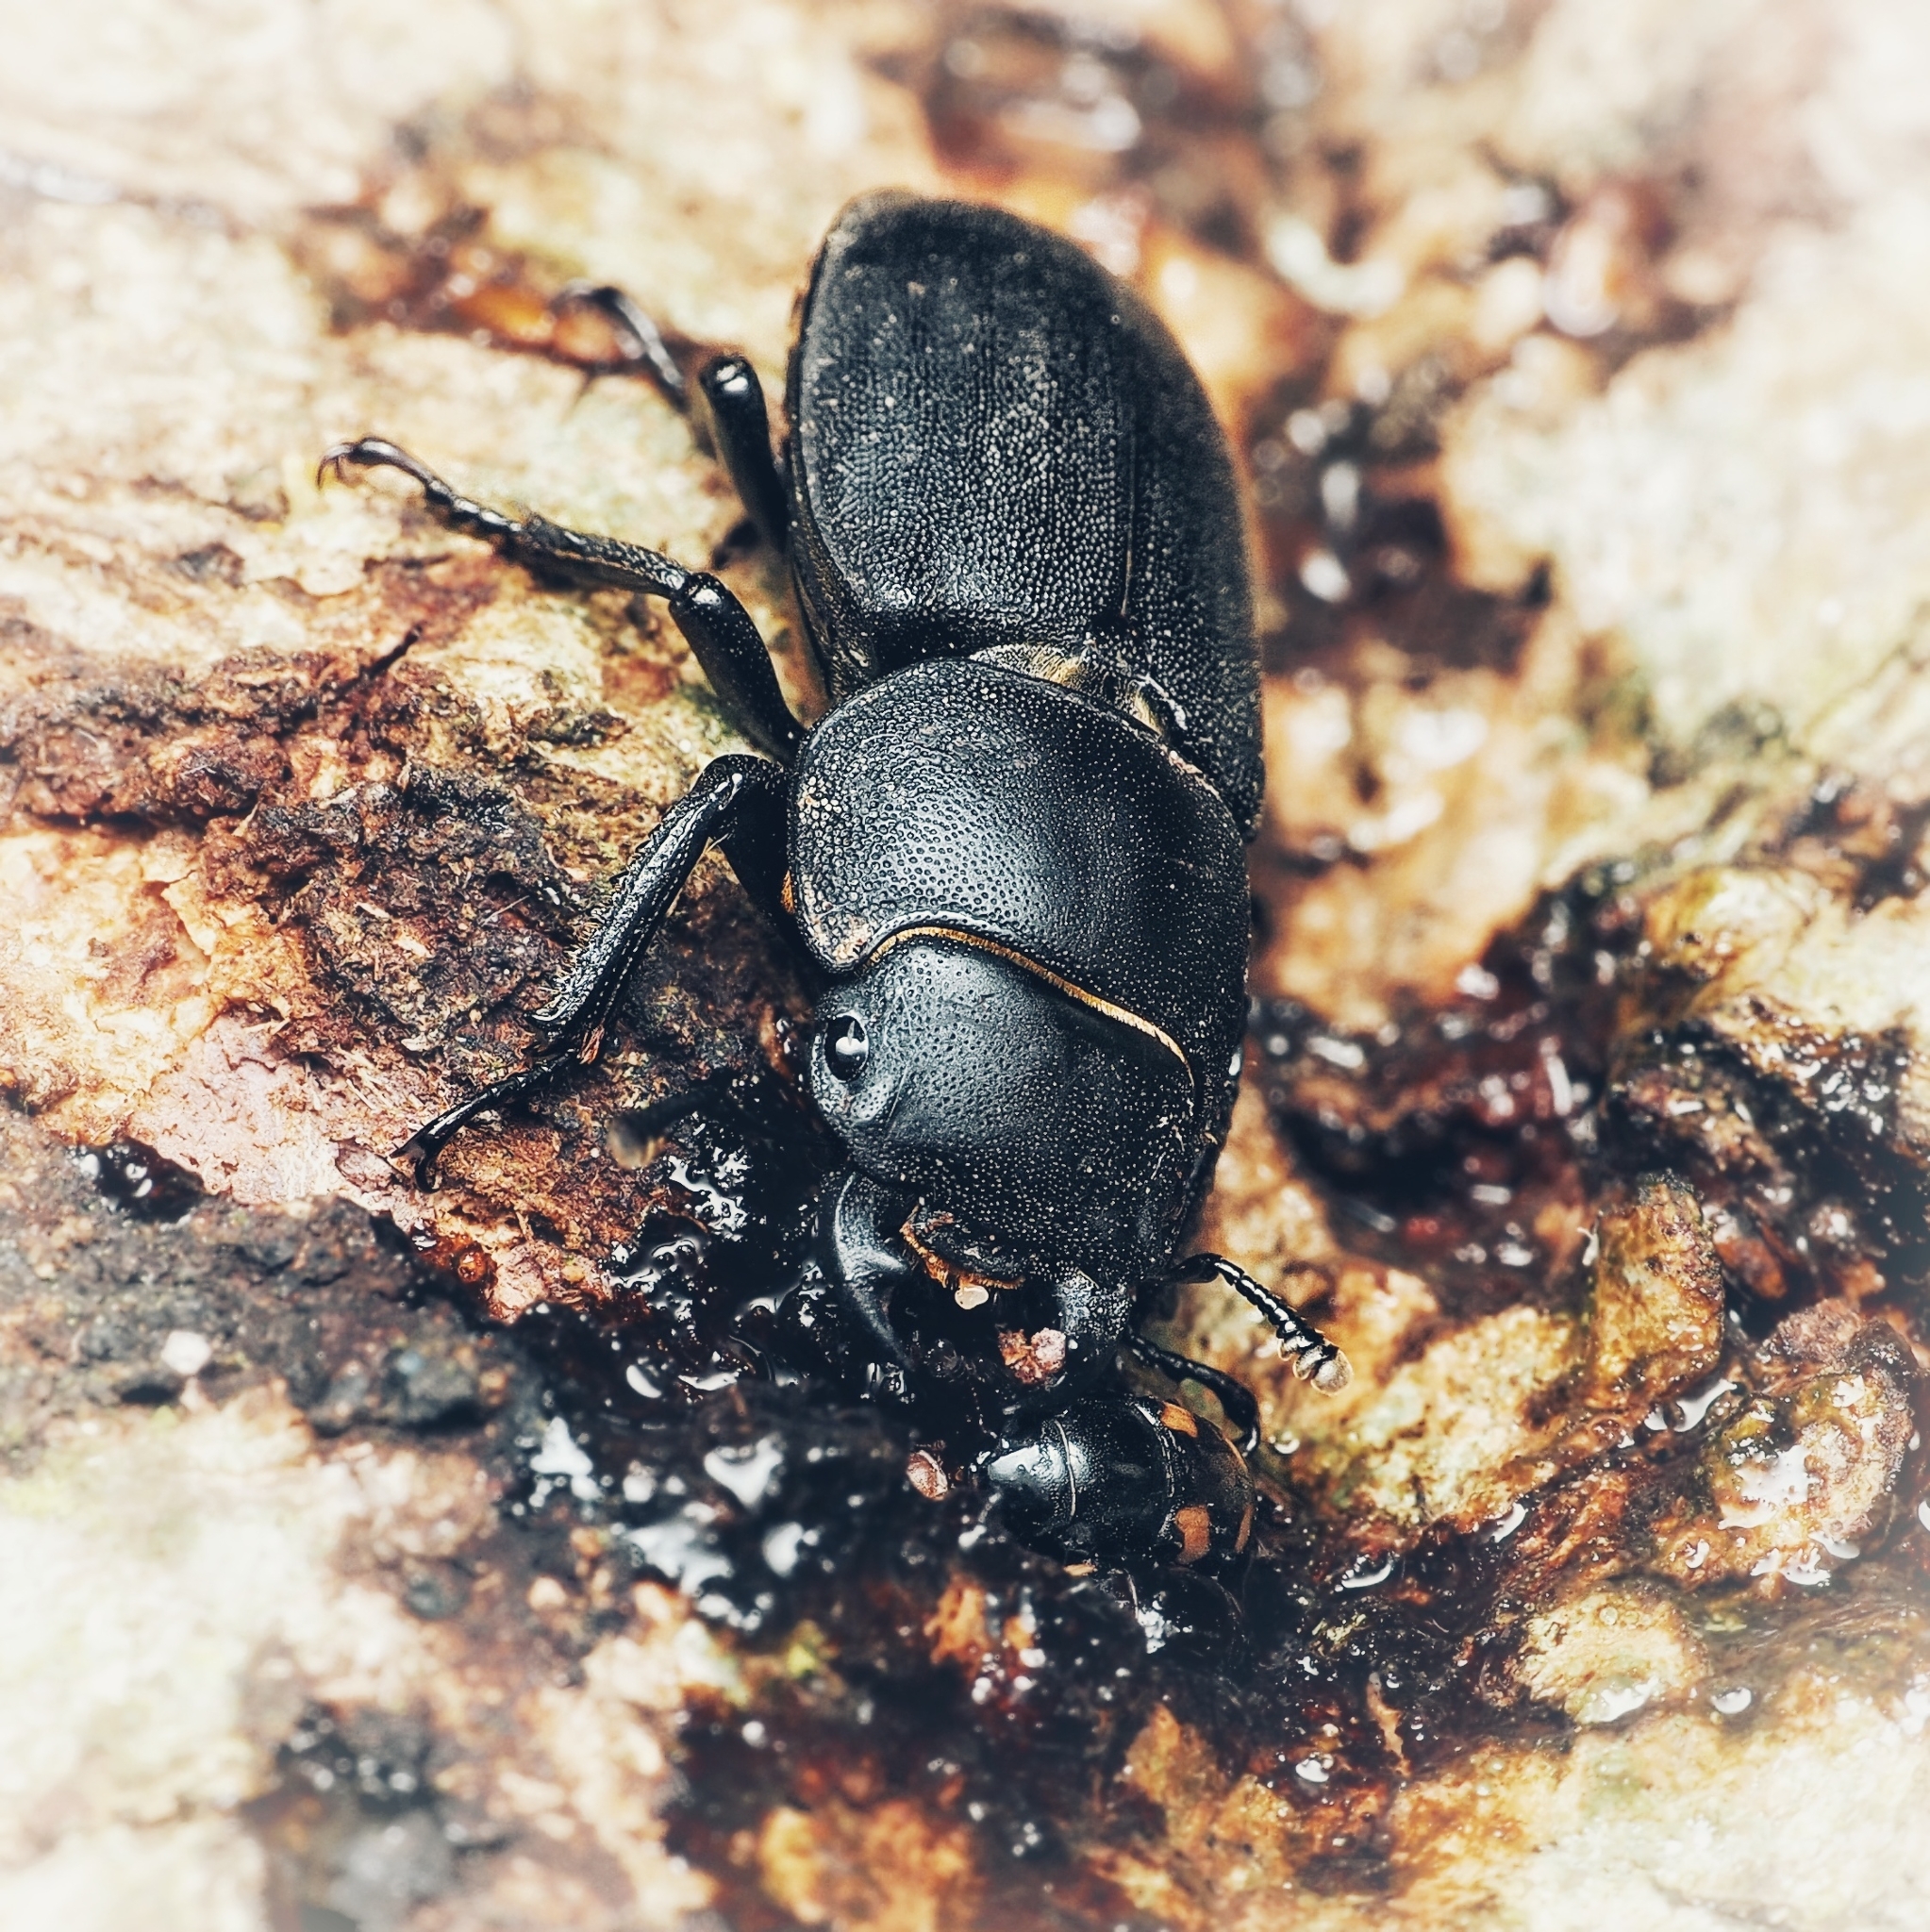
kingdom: Animalia
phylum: Arthropoda
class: Insecta
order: Coleoptera
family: Lucanidae
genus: Dorcus
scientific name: Dorcus parallelipipedus
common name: Lesser stag beetle
